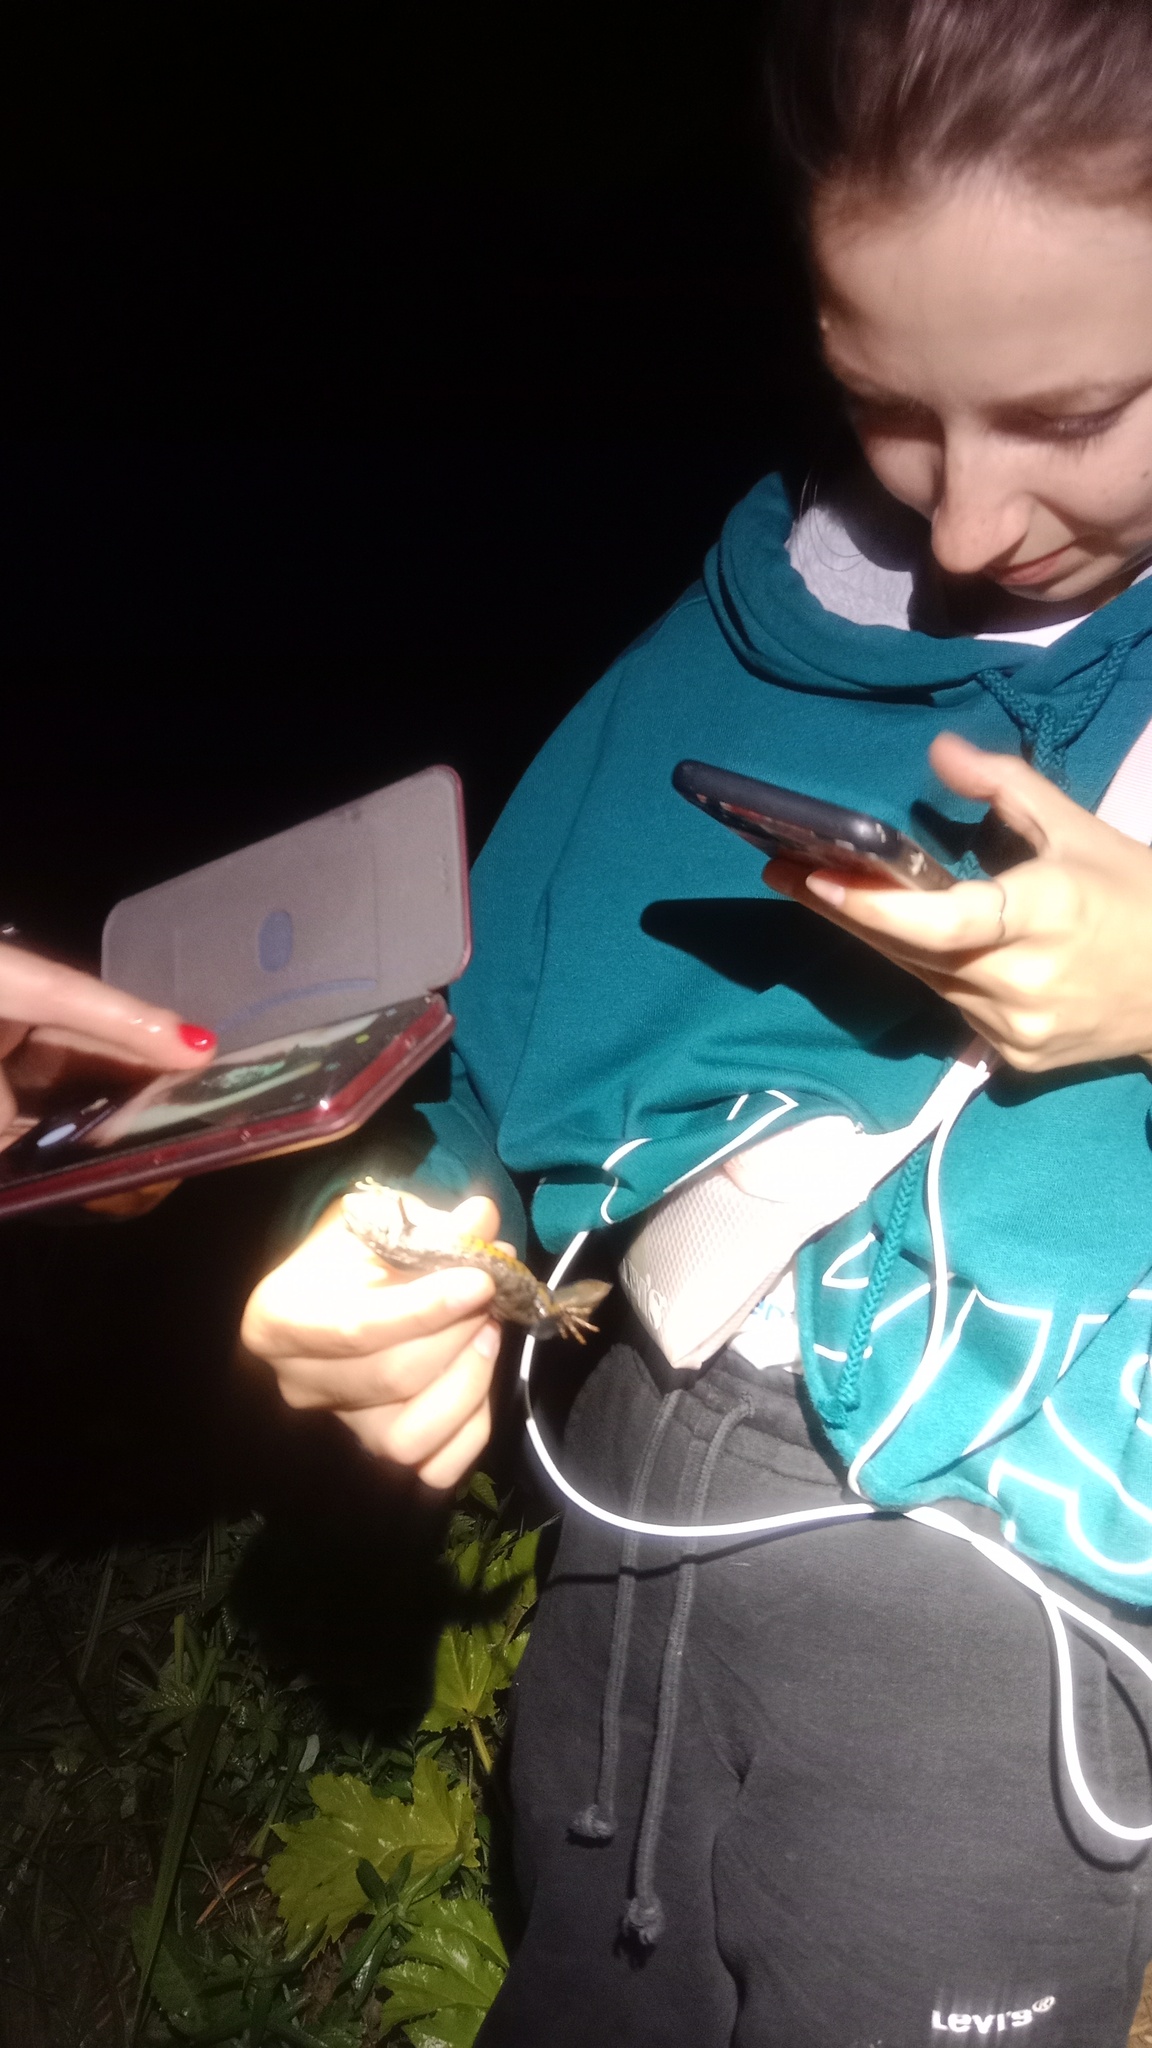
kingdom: Animalia
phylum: Chordata
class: Amphibia
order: Caudata
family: Salamandridae
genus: Triturus
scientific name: Triturus cristatus
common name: Crested newt
